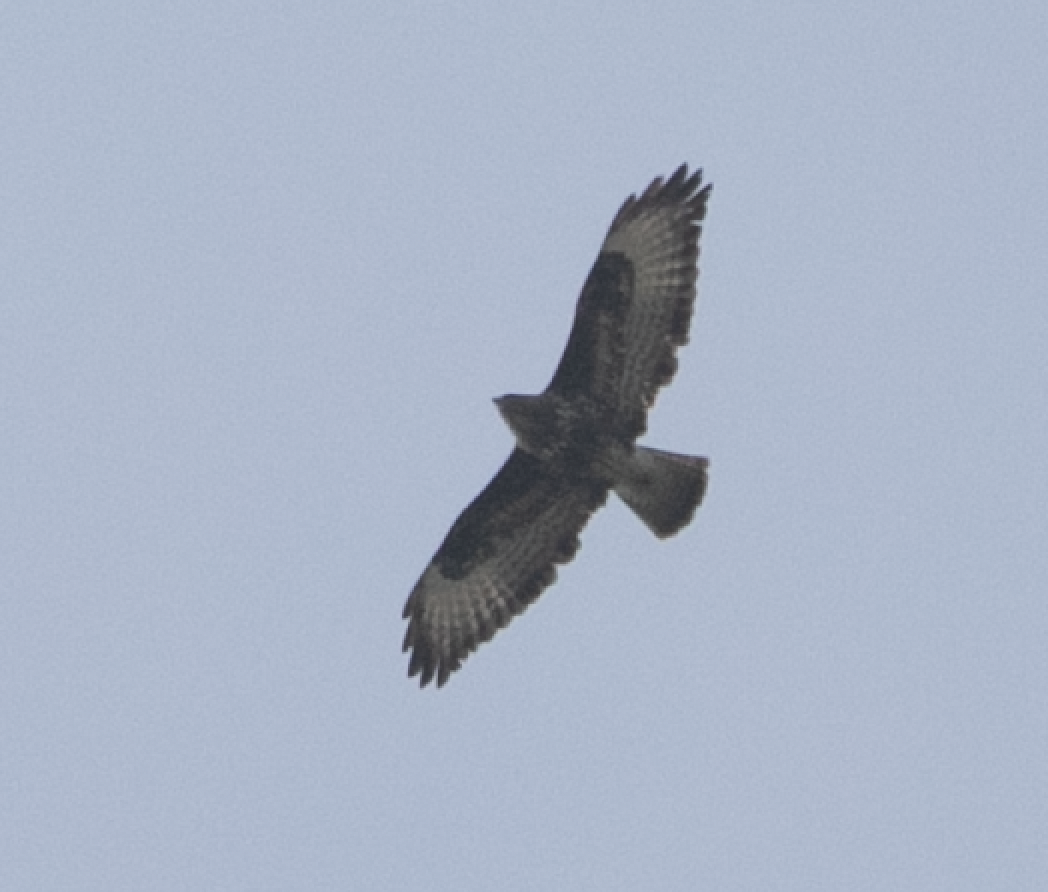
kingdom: Animalia
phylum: Chordata
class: Aves
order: Accipitriformes
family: Accipitridae
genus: Buteo
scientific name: Buteo buteo
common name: Common buzzard
